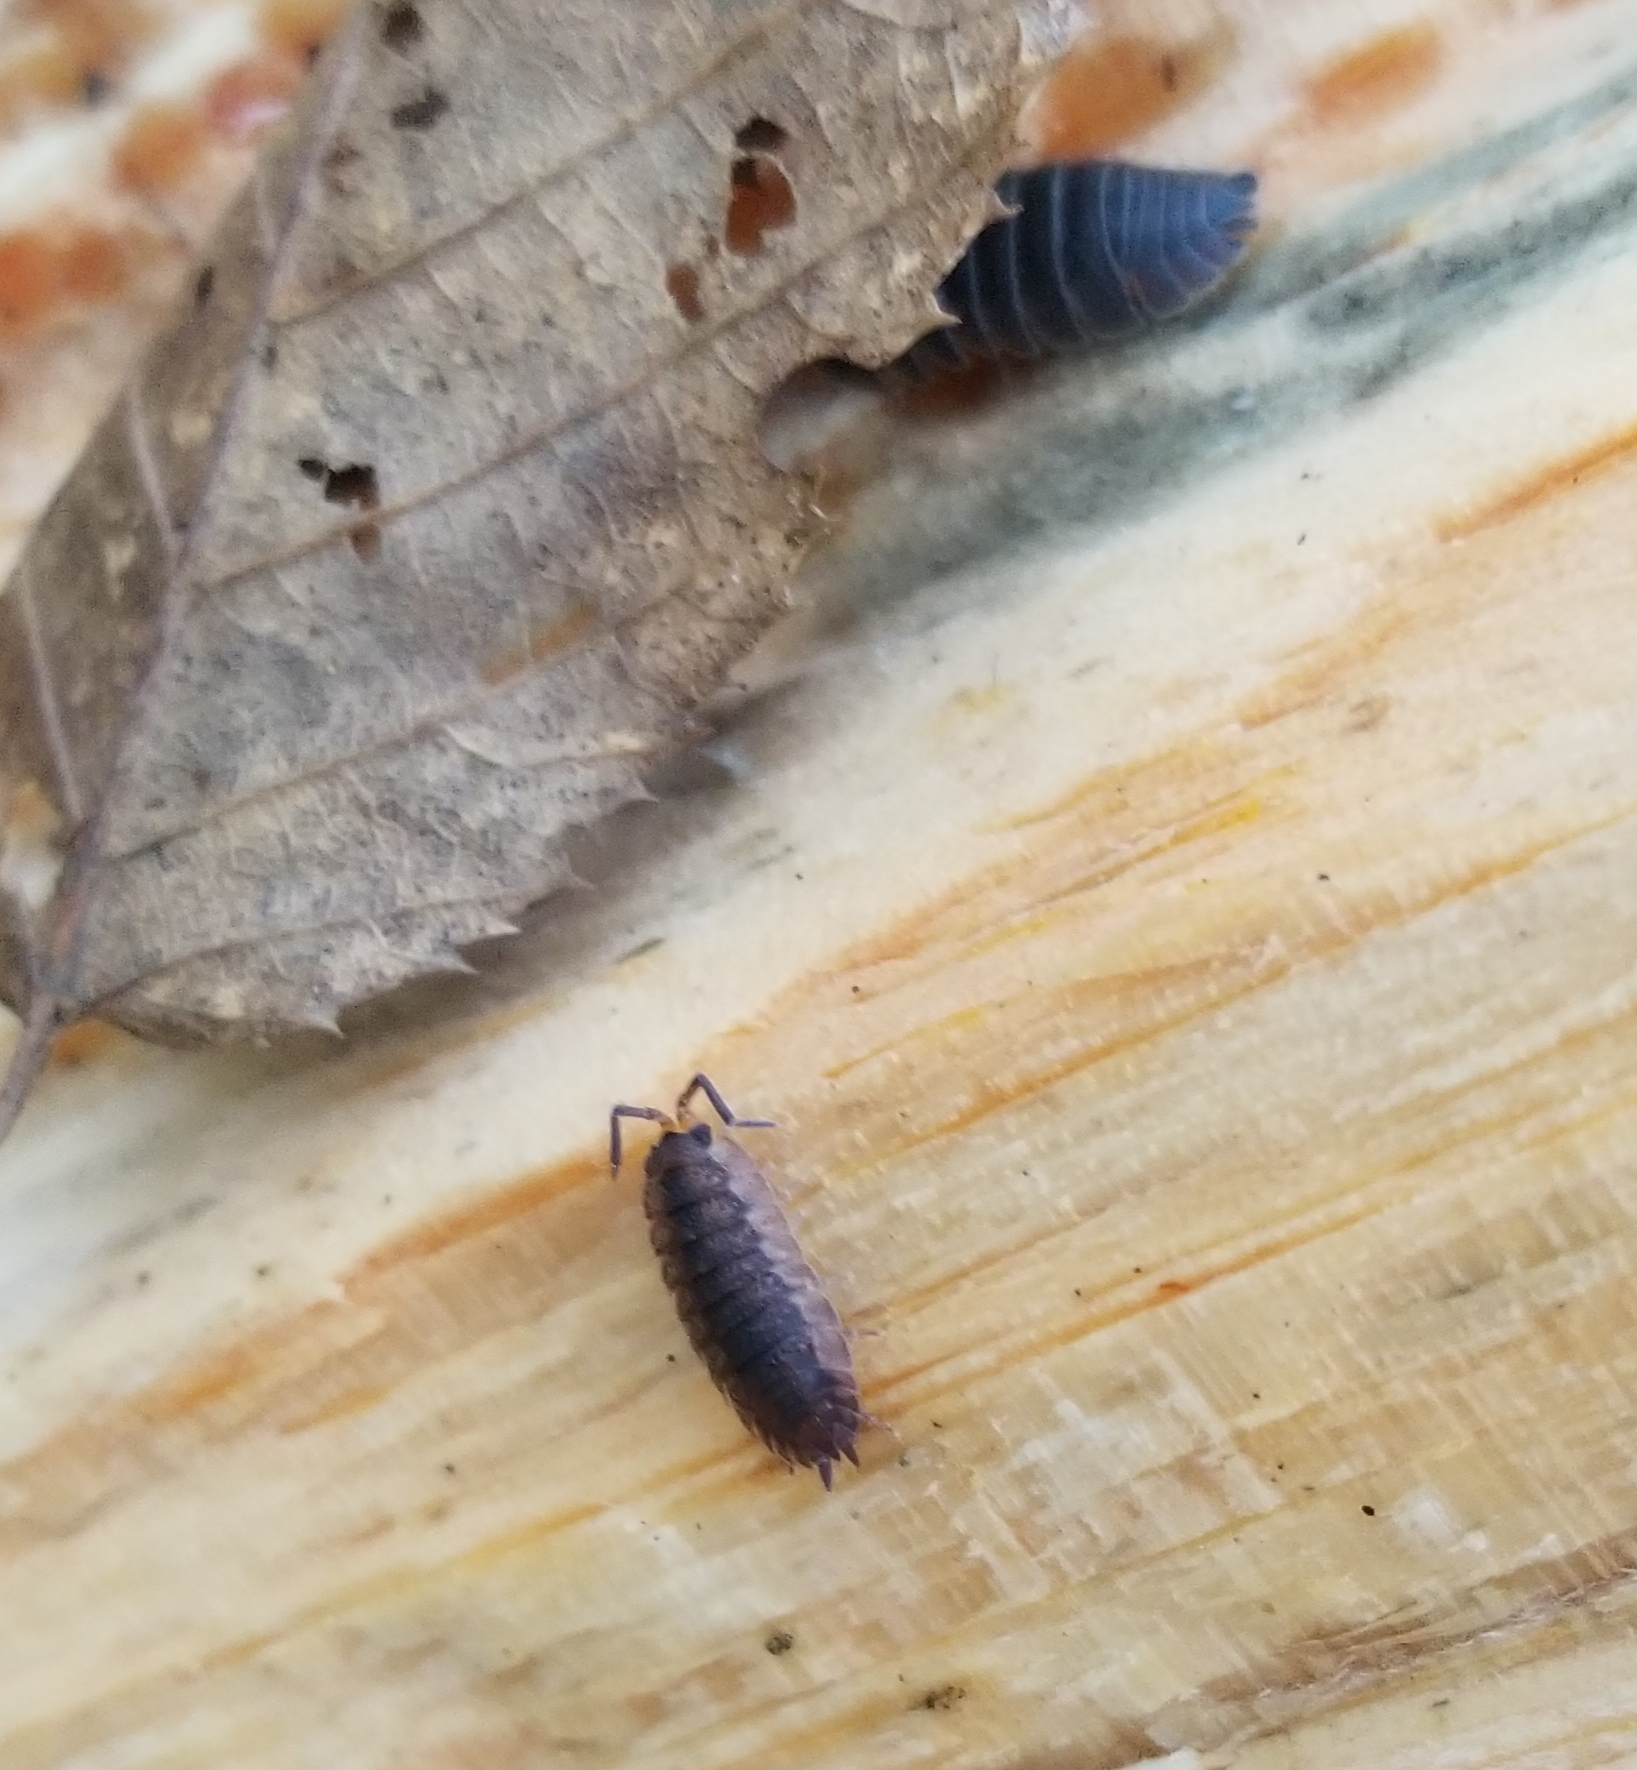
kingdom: Animalia
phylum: Arthropoda
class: Malacostraca
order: Isopoda
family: Porcellionidae
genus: Porcellio
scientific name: Porcellio scaber
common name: Common rough woodlouse
